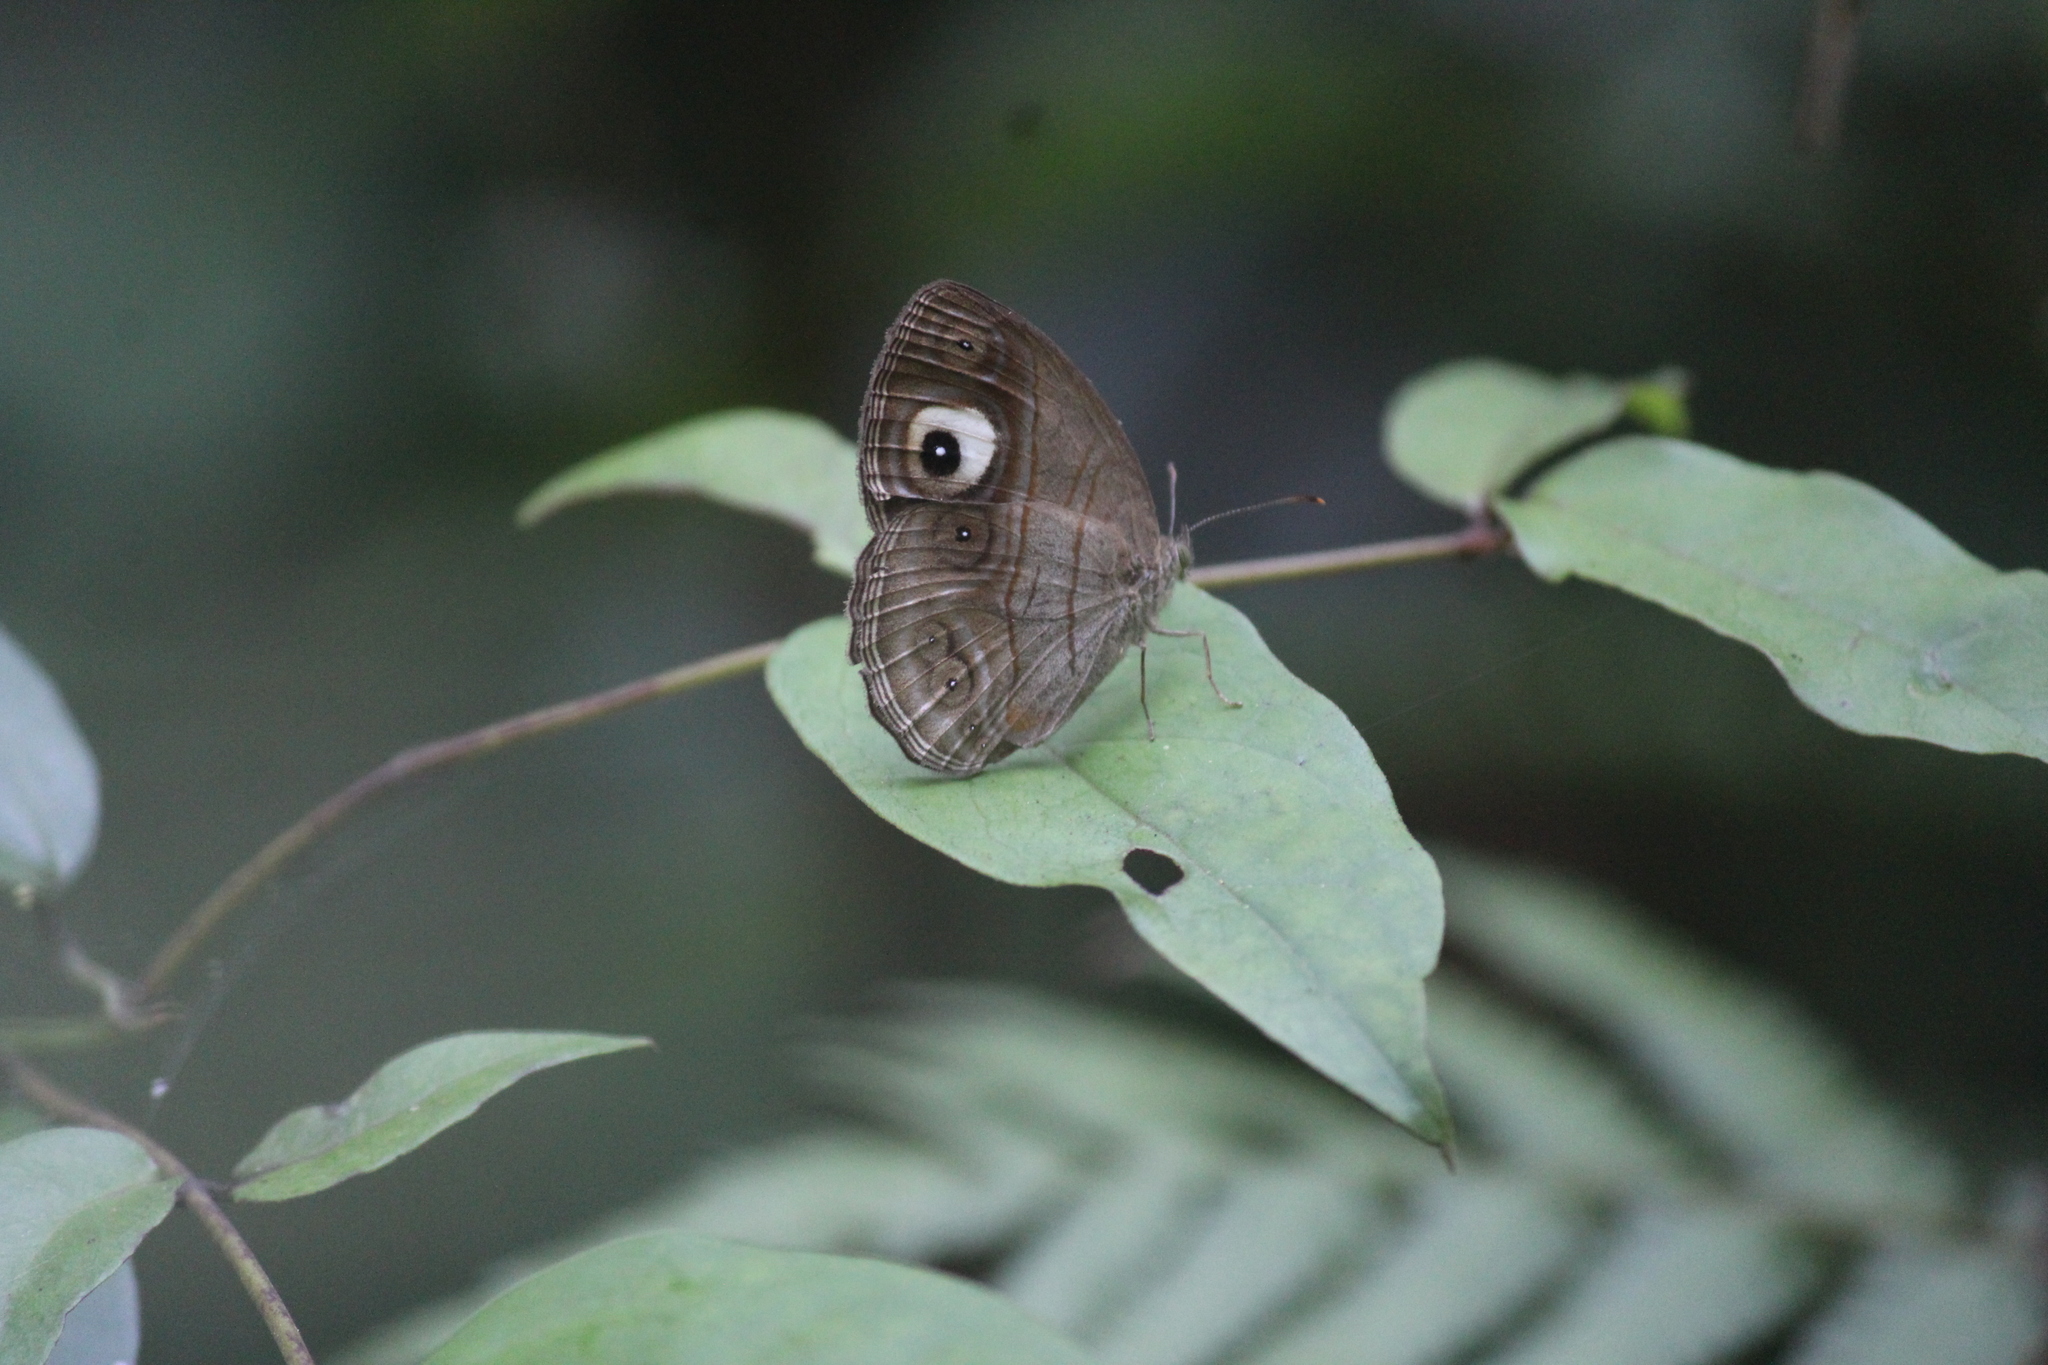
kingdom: Animalia
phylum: Arthropoda
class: Insecta
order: Lepidoptera
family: Nymphalidae
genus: Mycalesis
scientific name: Mycalesis patnia
